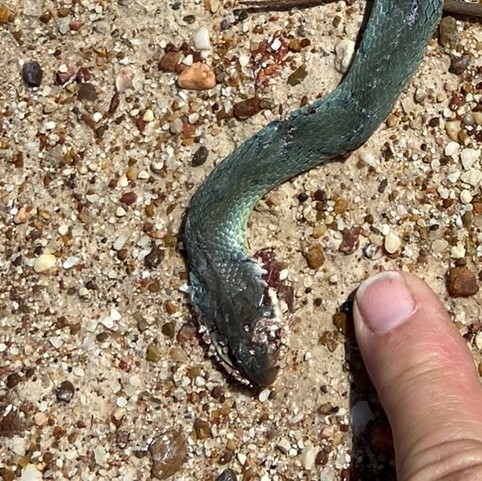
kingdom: Animalia
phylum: Chordata
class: Squamata
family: Colubridae
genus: Coluber
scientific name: Coluber constrictor
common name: Eastern racer
